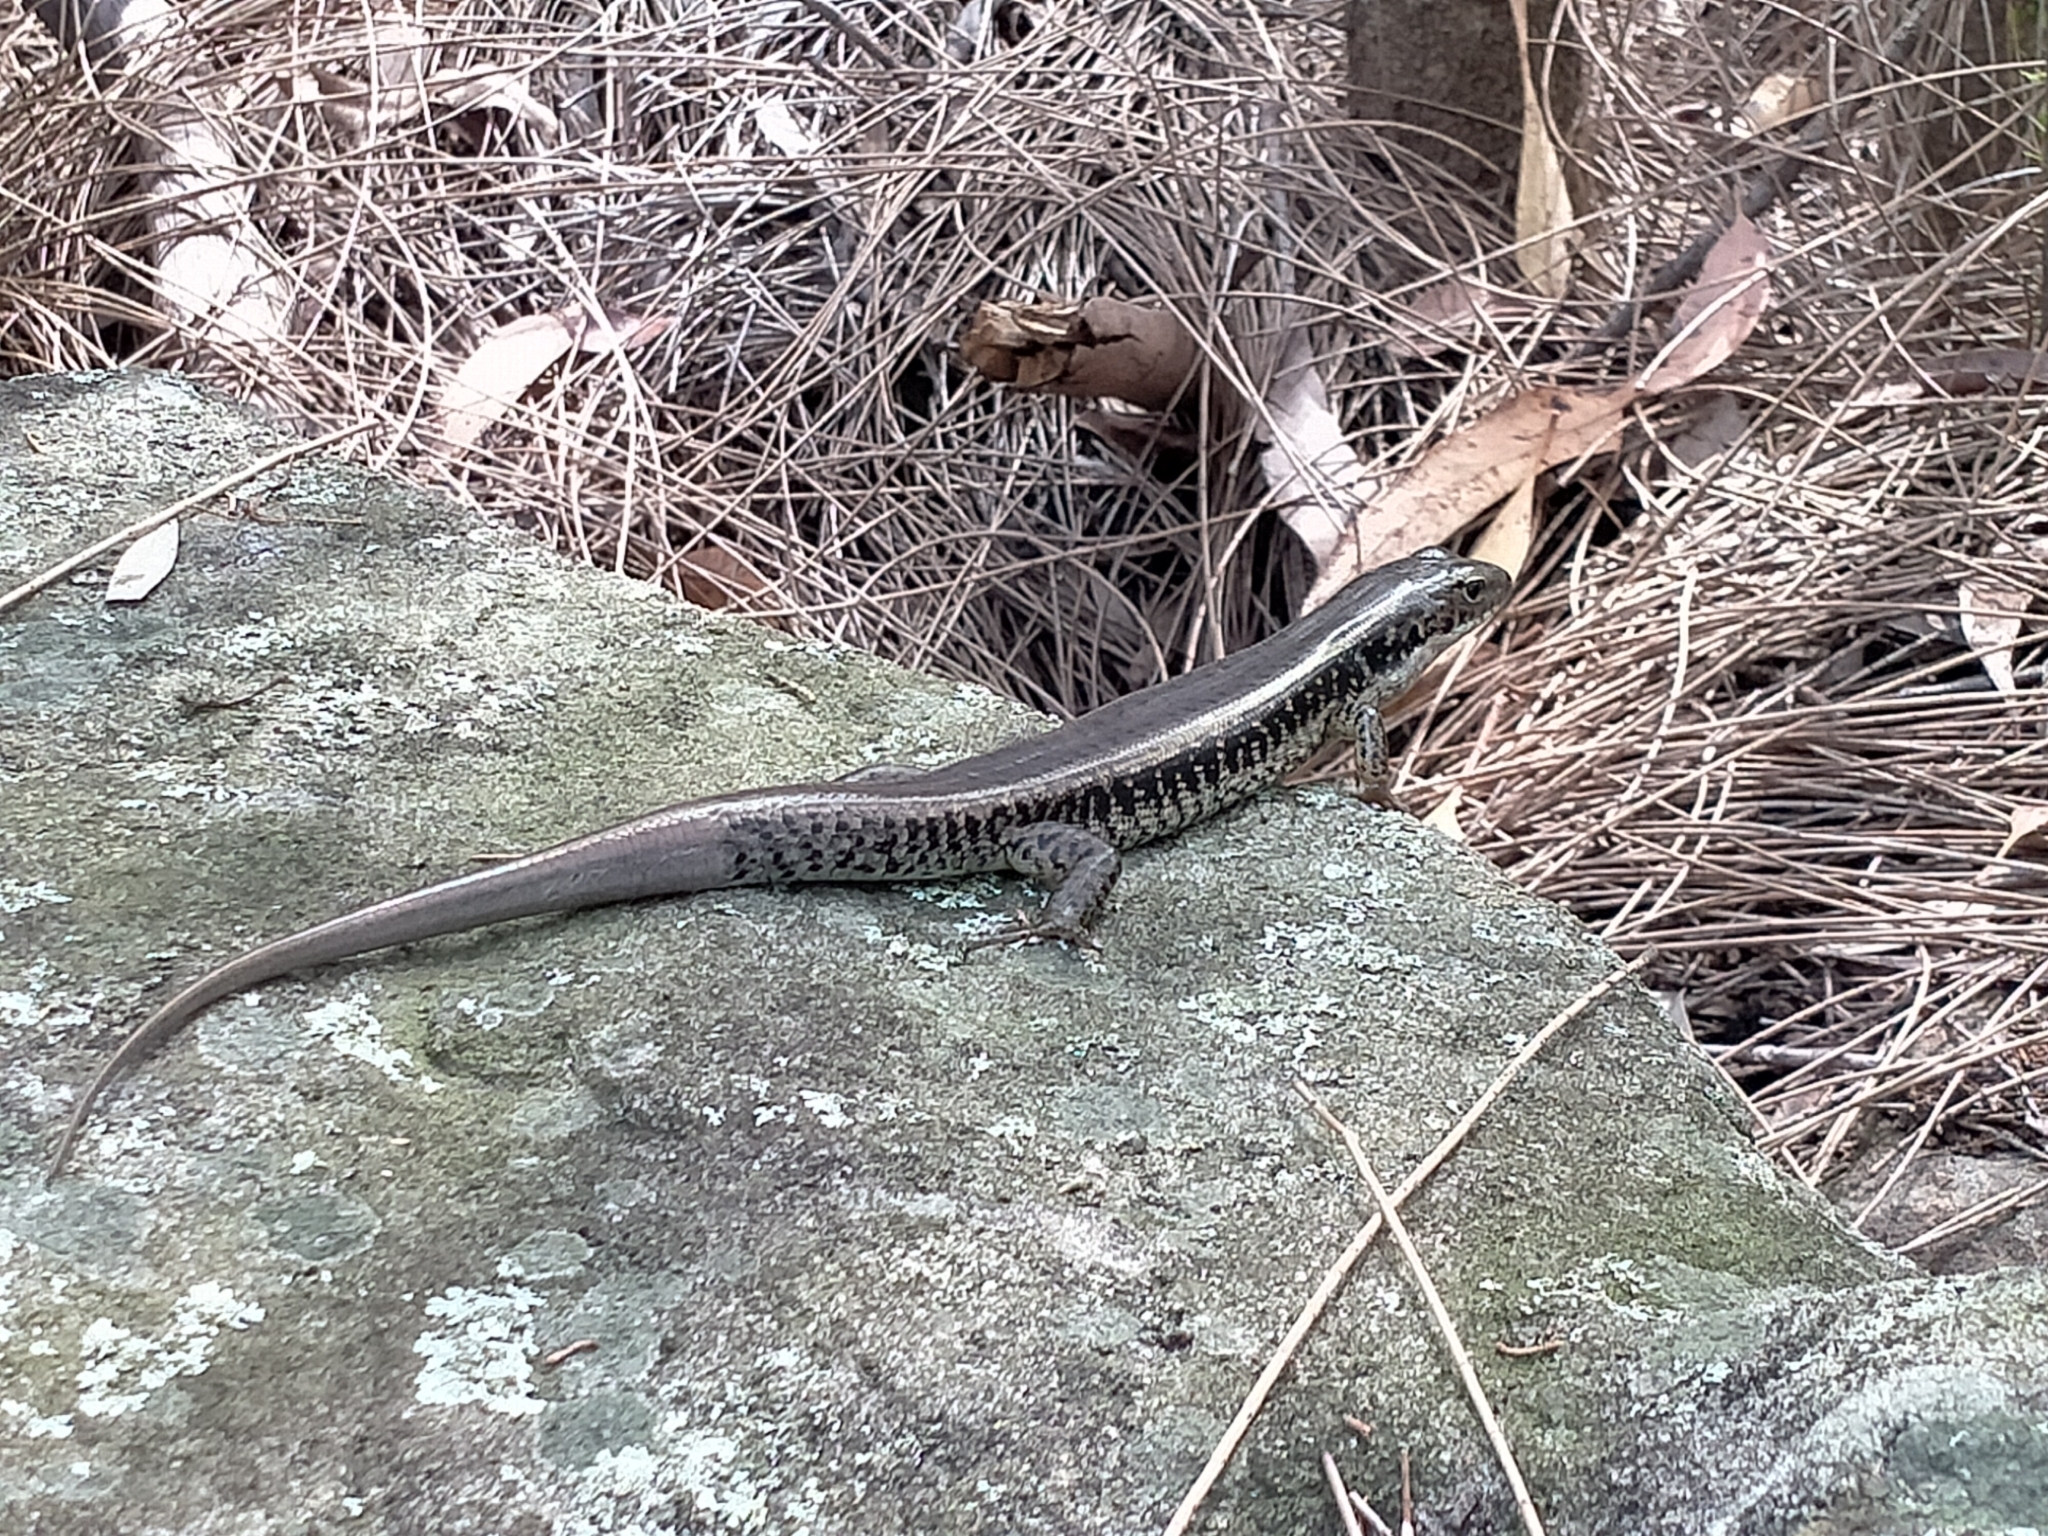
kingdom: Animalia
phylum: Chordata
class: Squamata
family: Scincidae
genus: Eulamprus
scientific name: Eulamprus quoyii
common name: Eastern water skink
